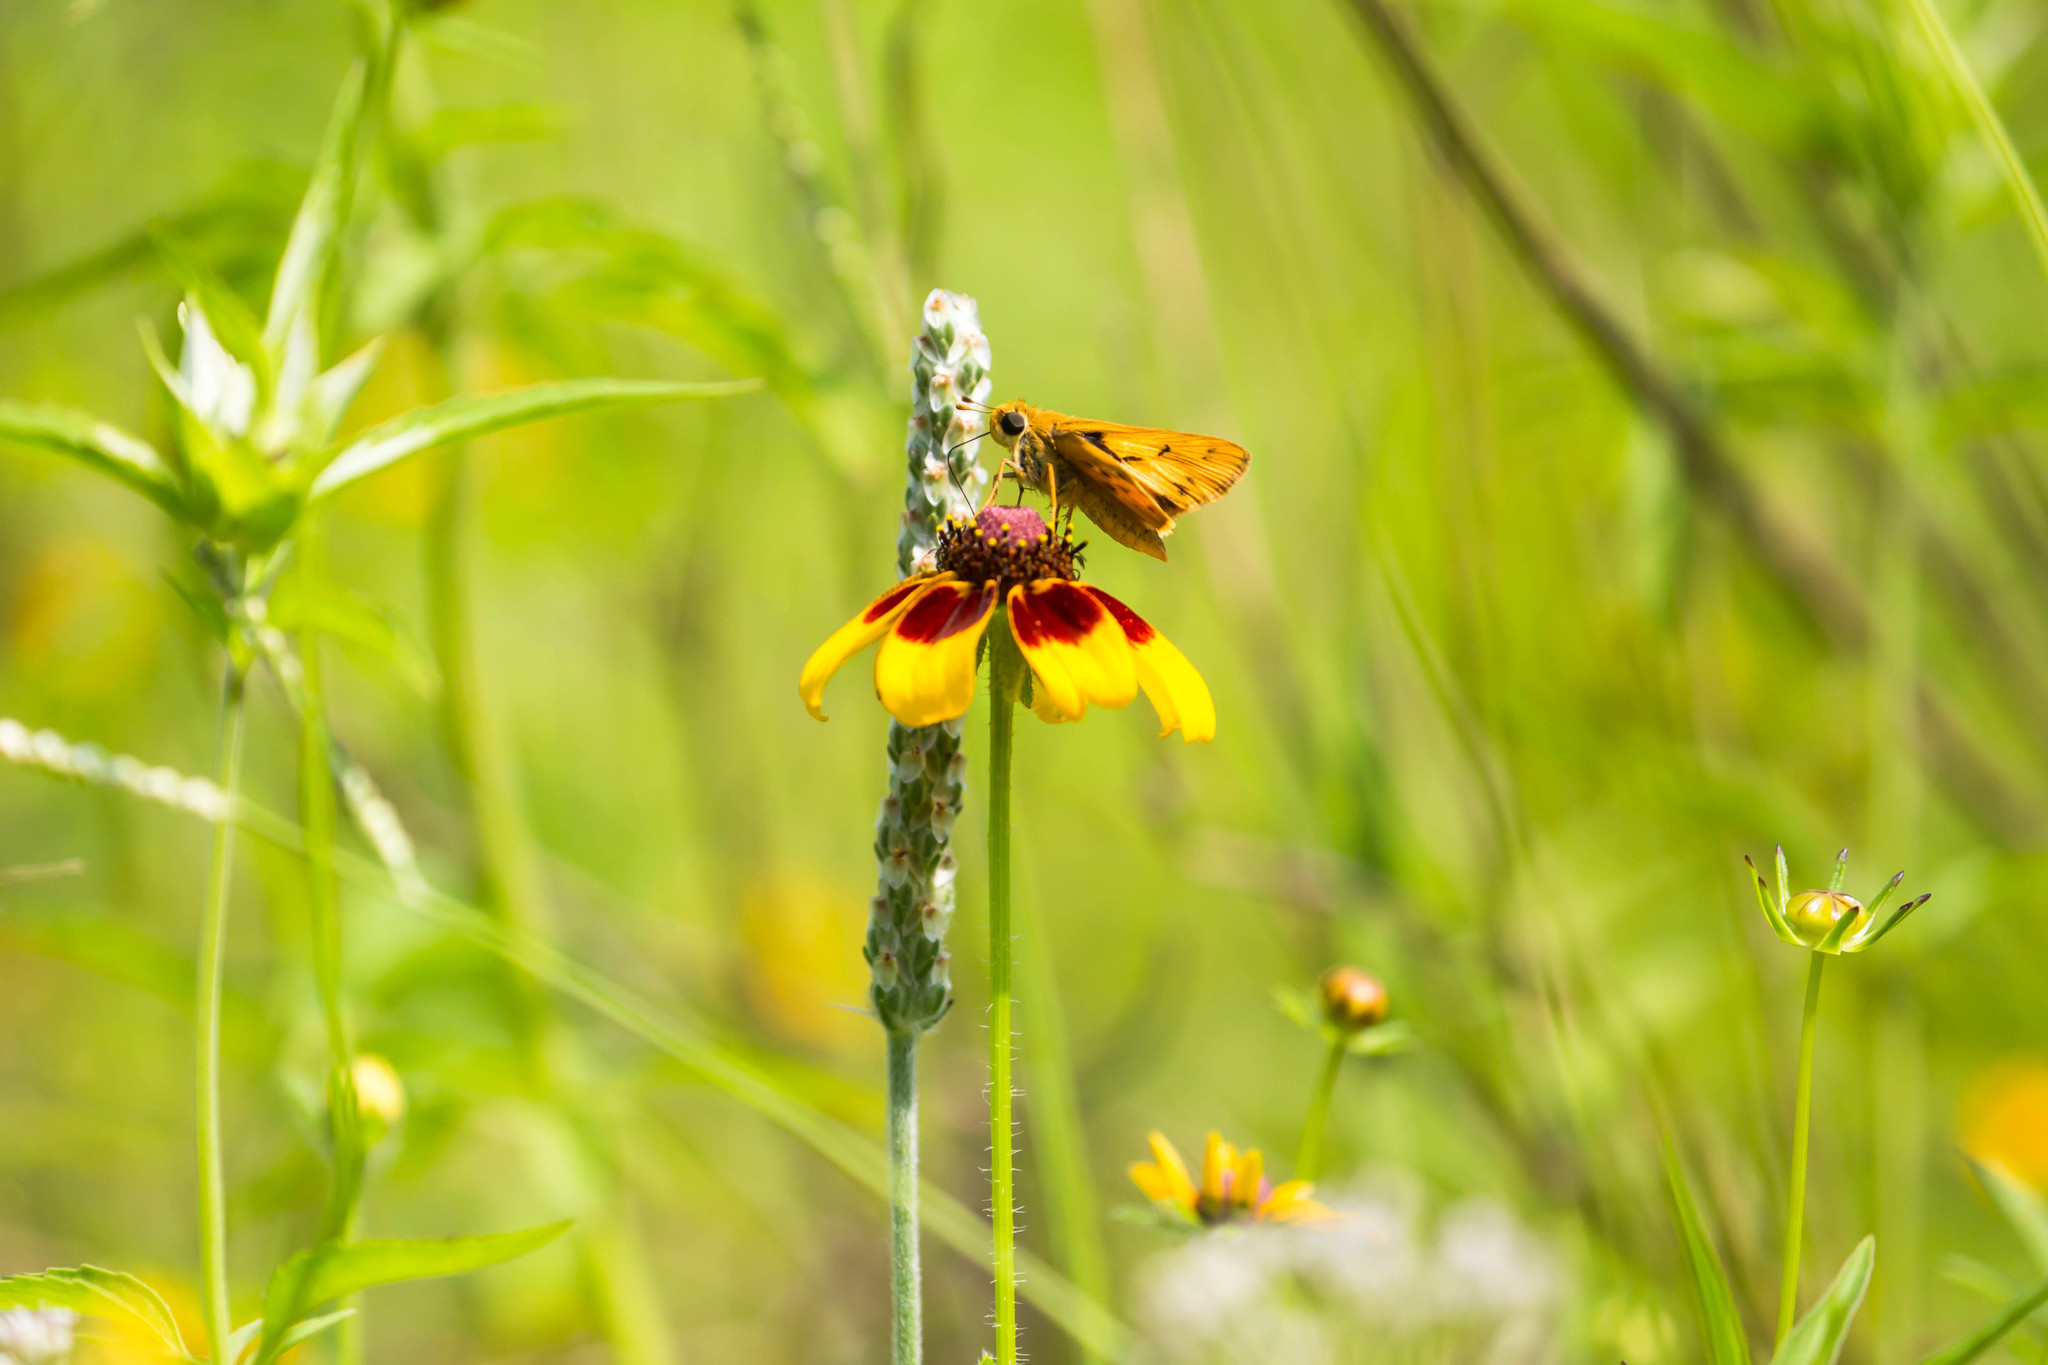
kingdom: Animalia
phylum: Arthropoda
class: Insecta
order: Lepidoptera
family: Hesperiidae
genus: Hylephila
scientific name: Hylephila phyleus
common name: Fiery skipper
